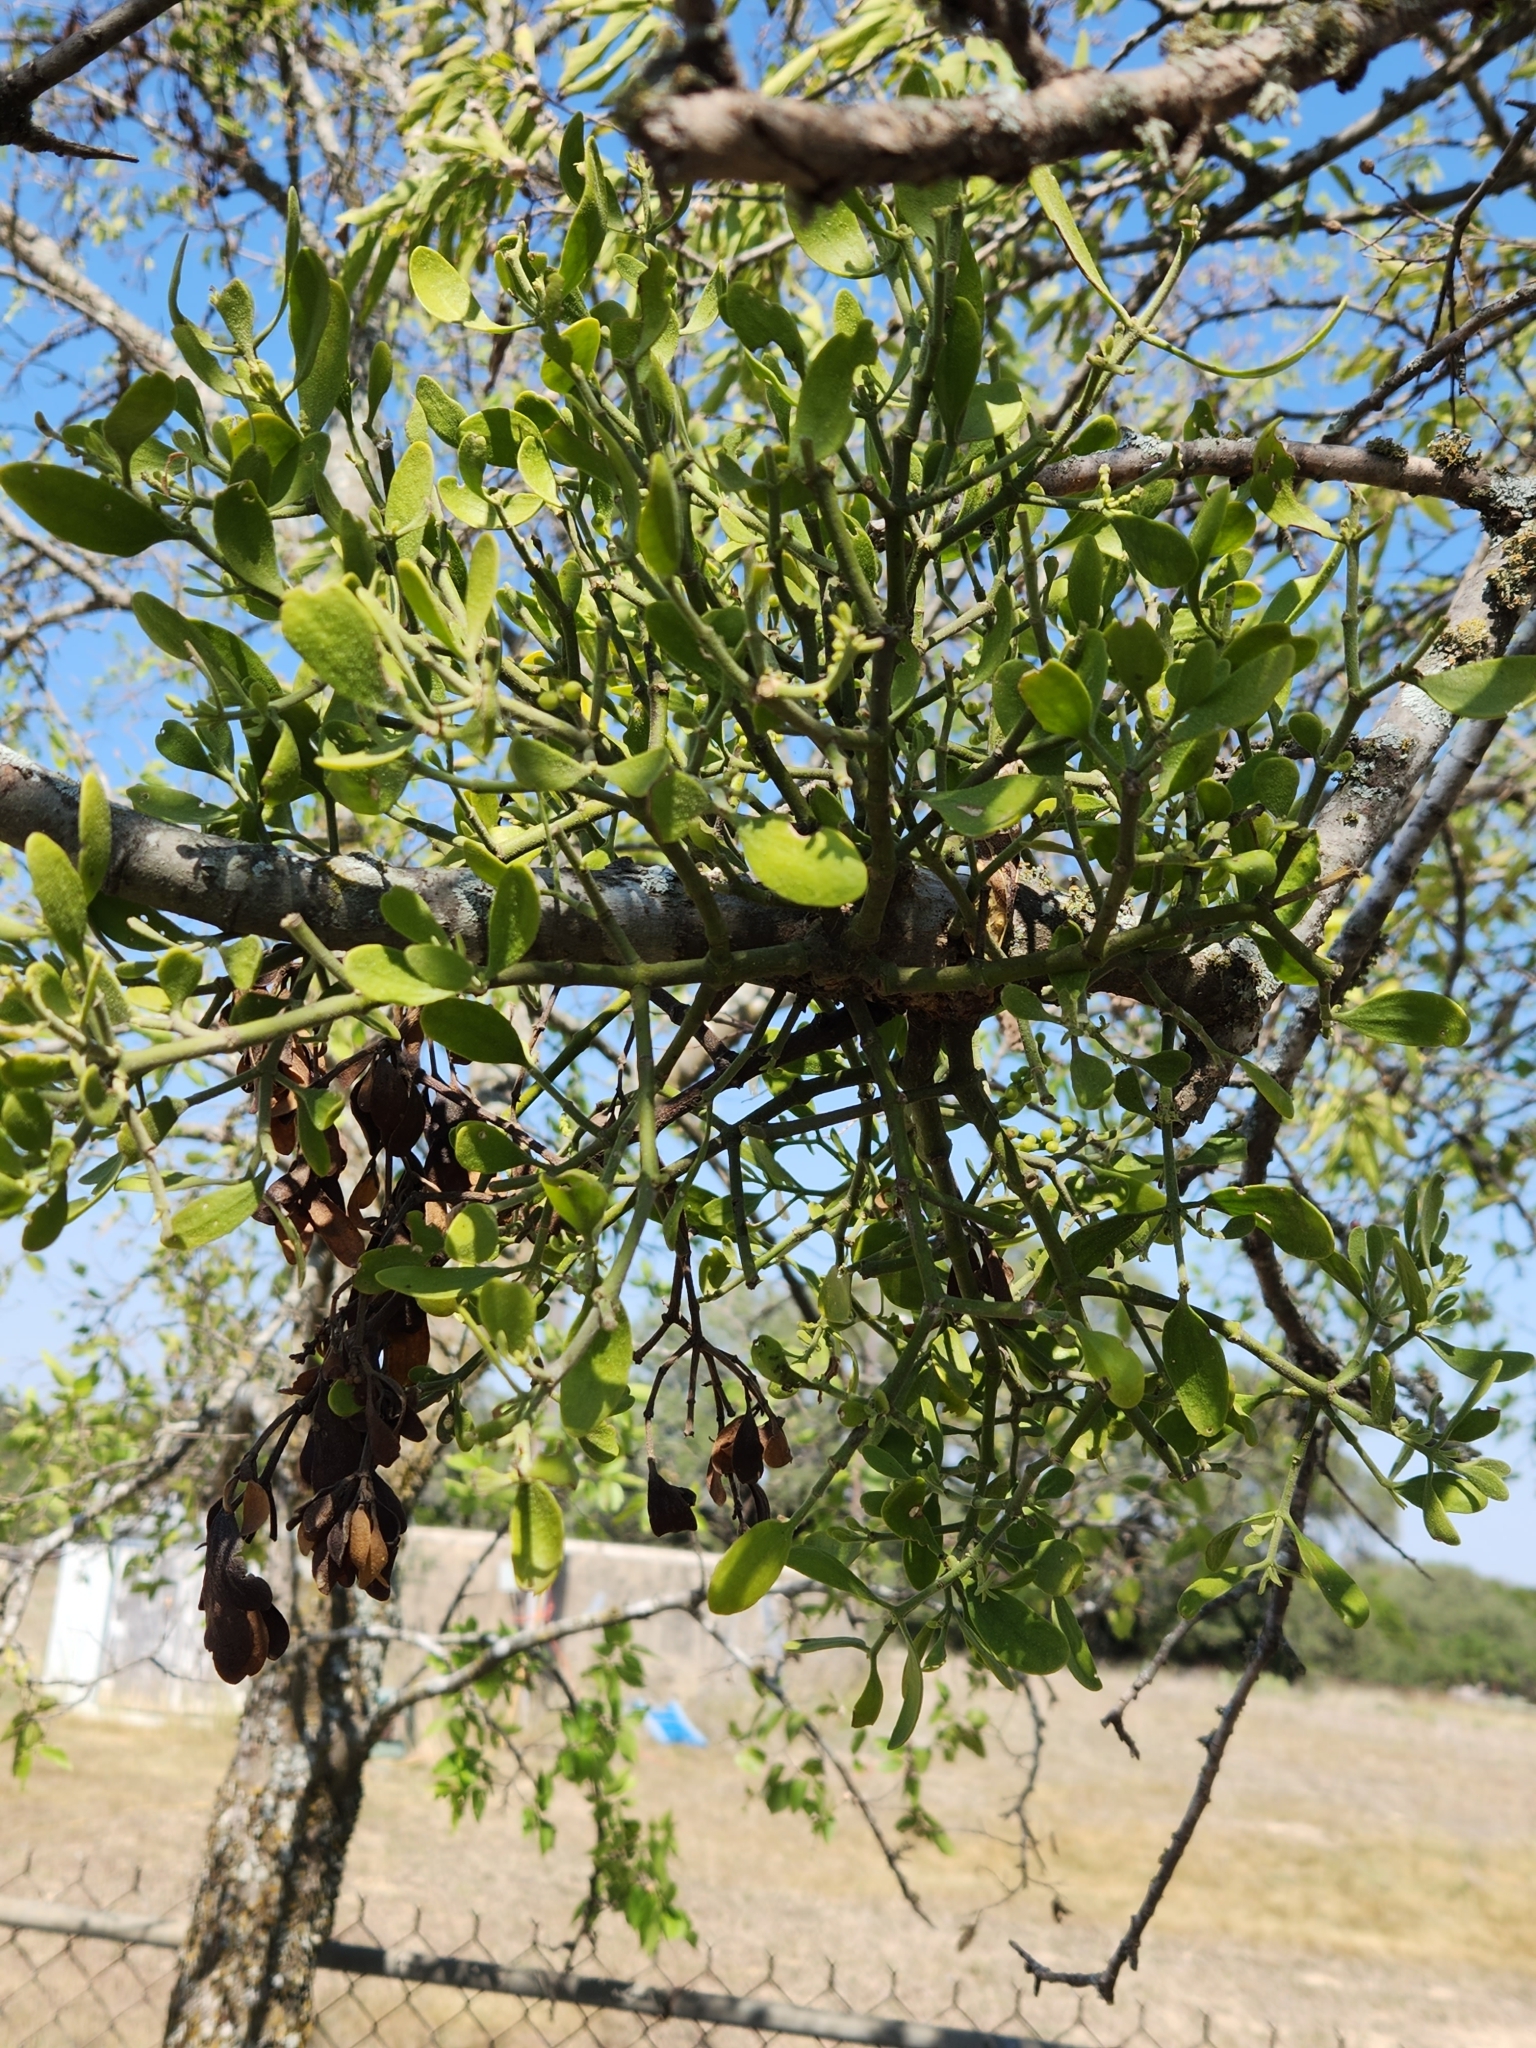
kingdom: Plantae
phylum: Tracheophyta
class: Magnoliopsida
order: Santalales
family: Viscaceae
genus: Phoradendron
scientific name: Phoradendron leucarpum
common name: Pacific mistletoe
